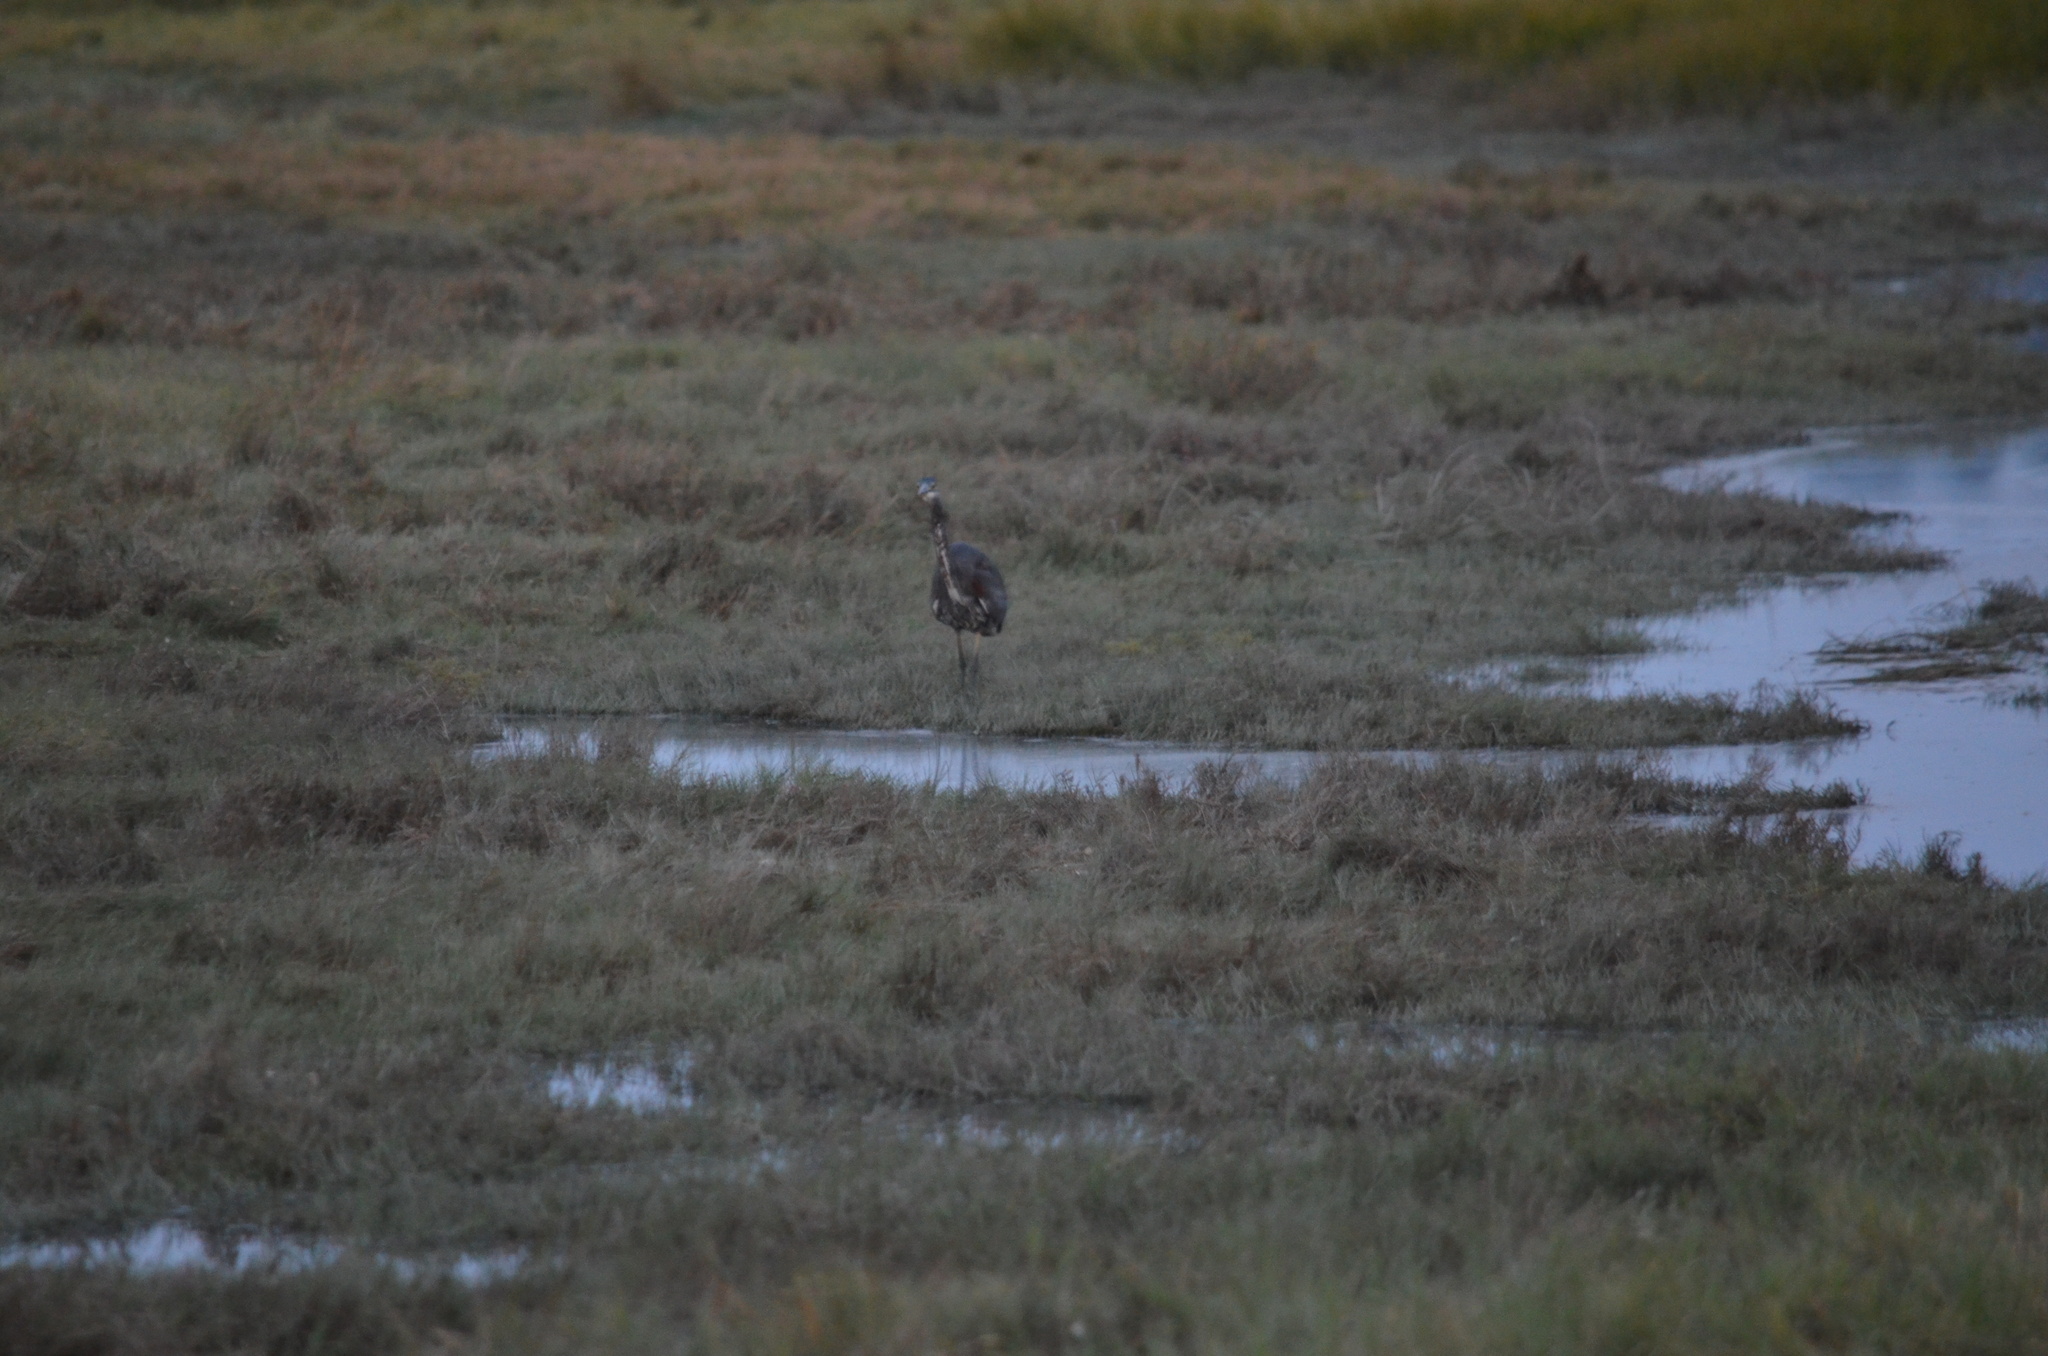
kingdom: Animalia
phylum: Chordata
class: Aves
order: Pelecaniformes
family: Ardeidae
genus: Ardea
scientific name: Ardea herodias
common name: Great blue heron
